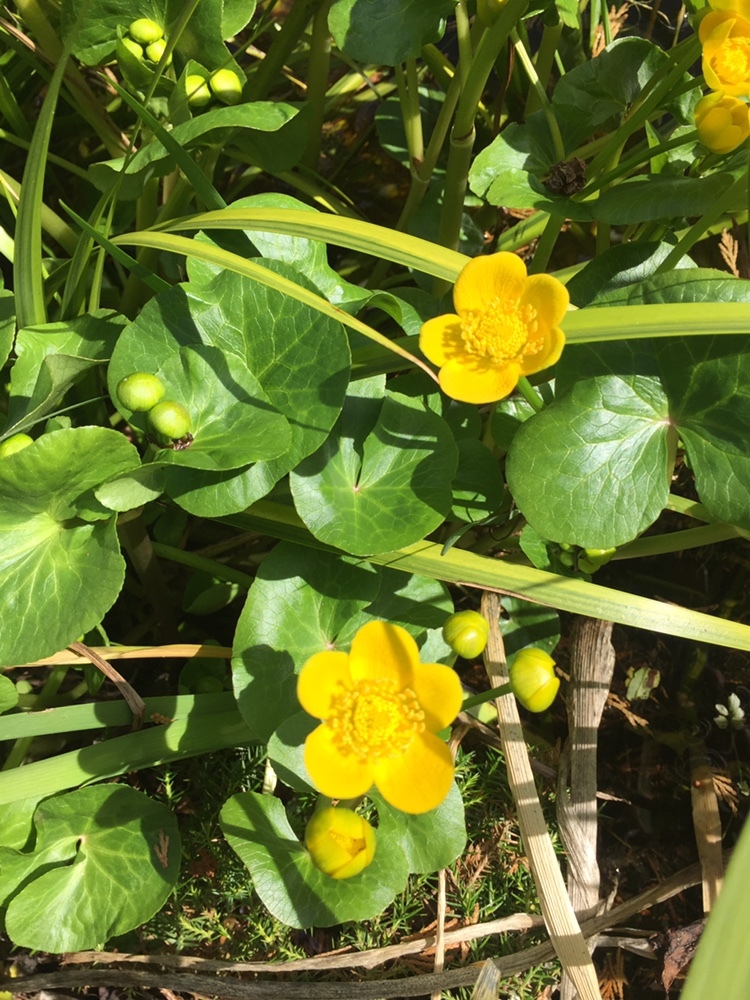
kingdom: Plantae
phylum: Tracheophyta
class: Magnoliopsida
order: Ranunculales
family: Ranunculaceae
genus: Caltha
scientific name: Caltha palustris
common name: Marsh marigold
